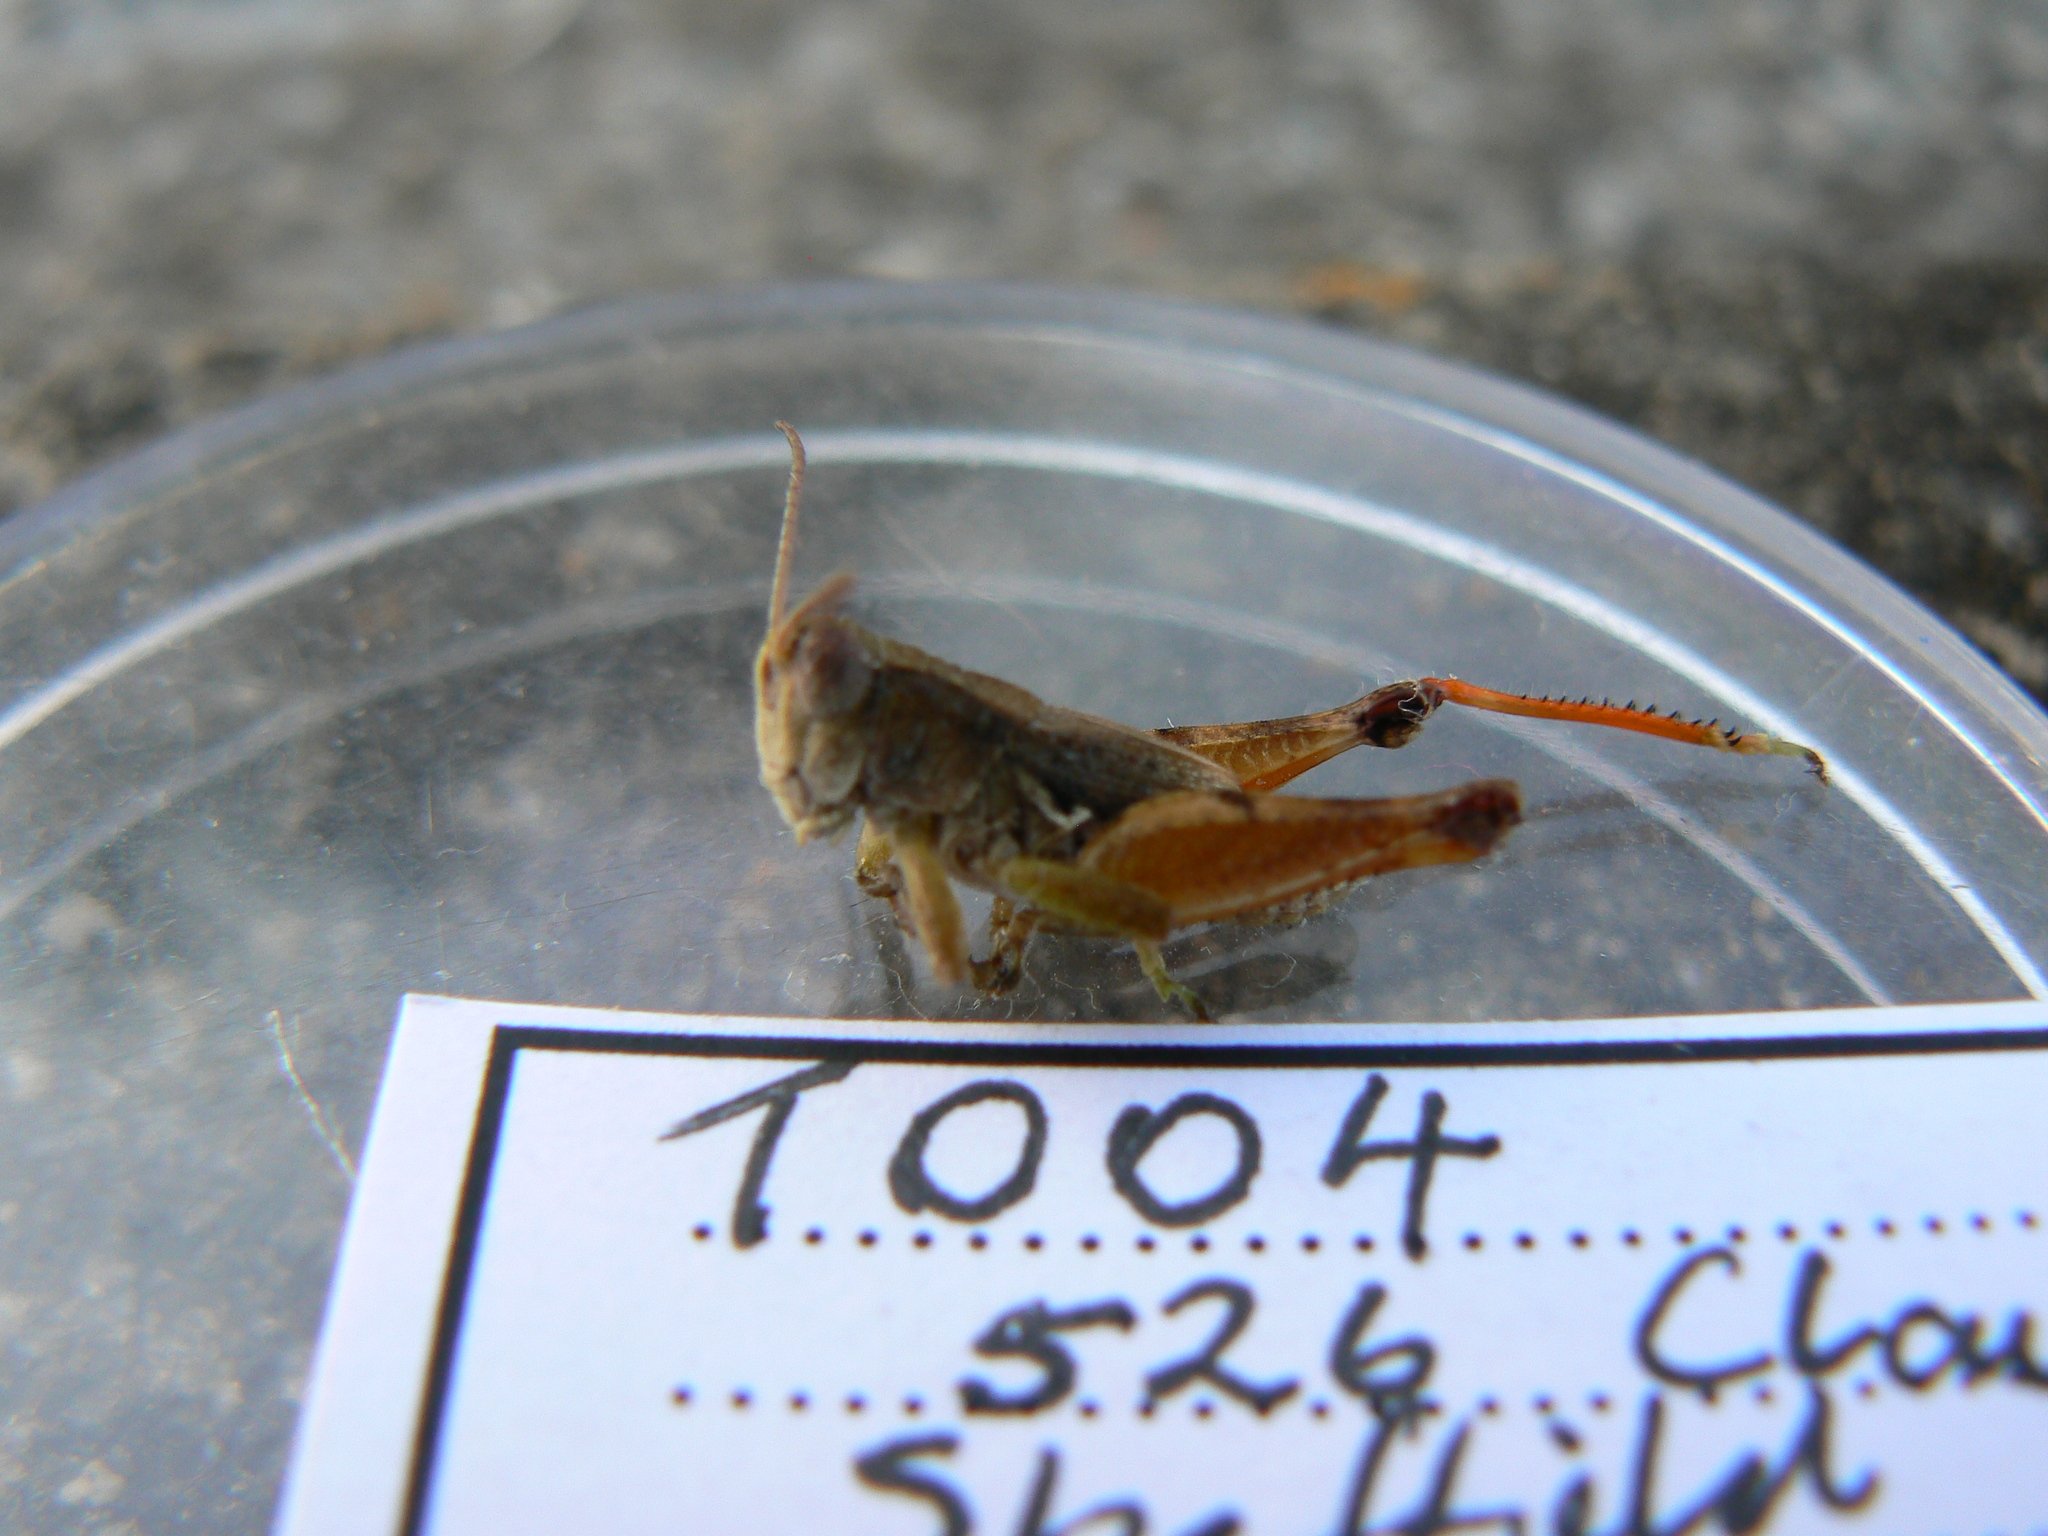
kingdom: Animalia
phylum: Arthropoda
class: Insecta
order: Orthoptera
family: Acrididae
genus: Phaulacridium
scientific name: Phaulacridium vittatum
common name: Wingless grasshopper
